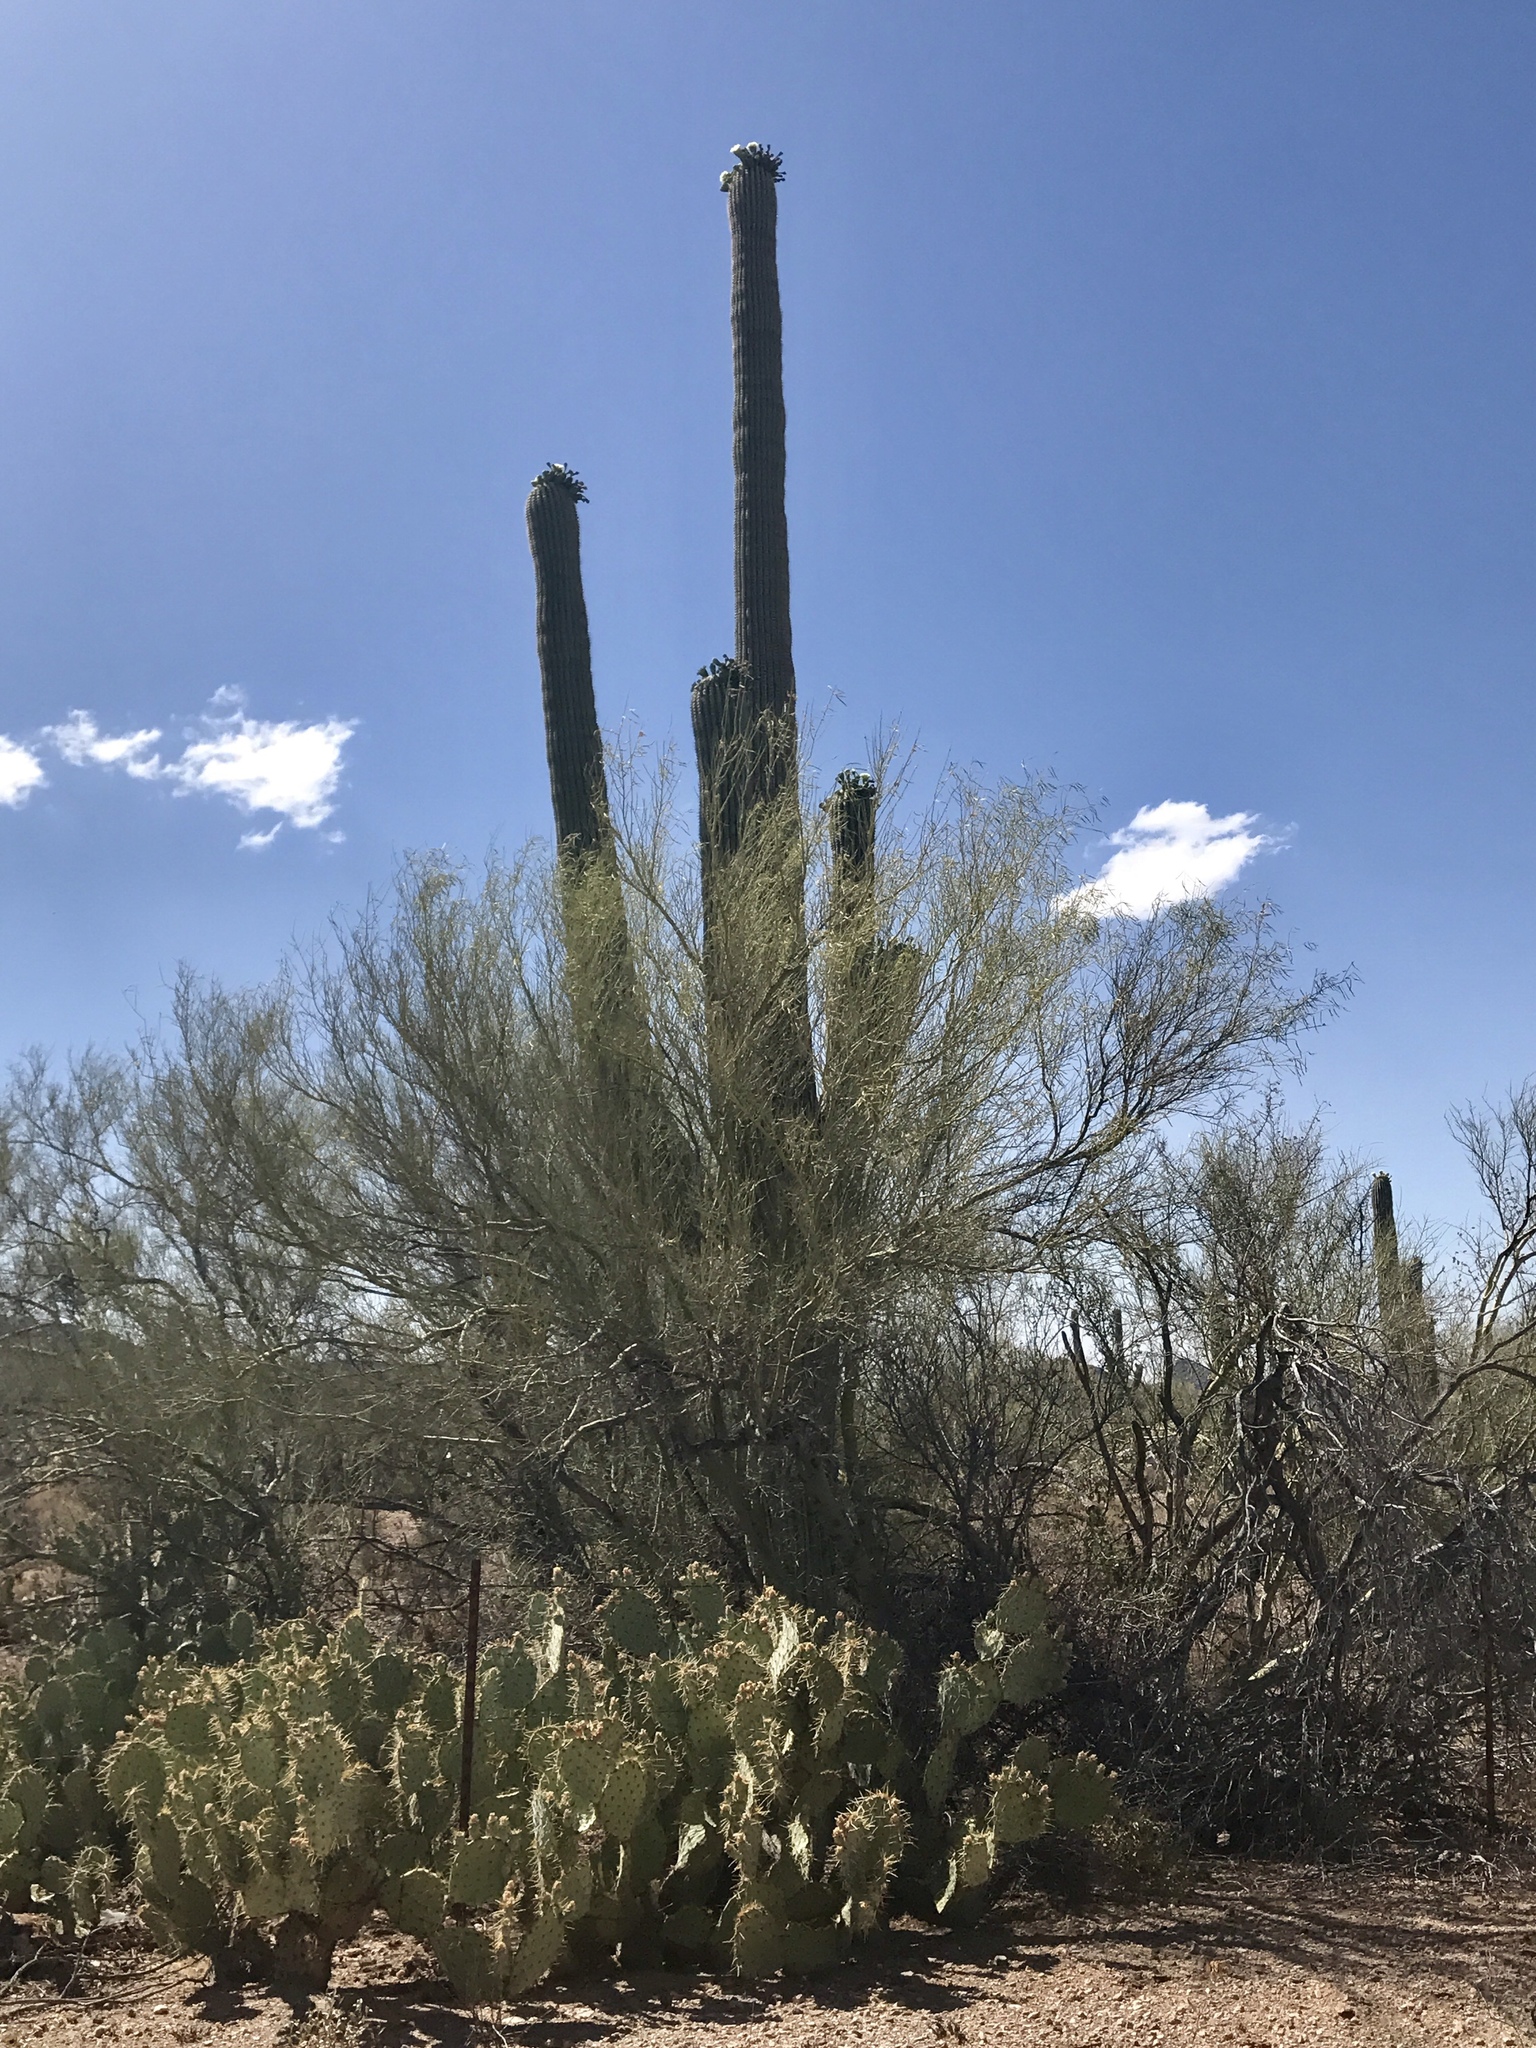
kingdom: Plantae
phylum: Tracheophyta
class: Magnoliopsida
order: Caryophyllales
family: Cactaceae
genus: Carnegiea
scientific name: Carnegiea gigantea
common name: Saguaro
